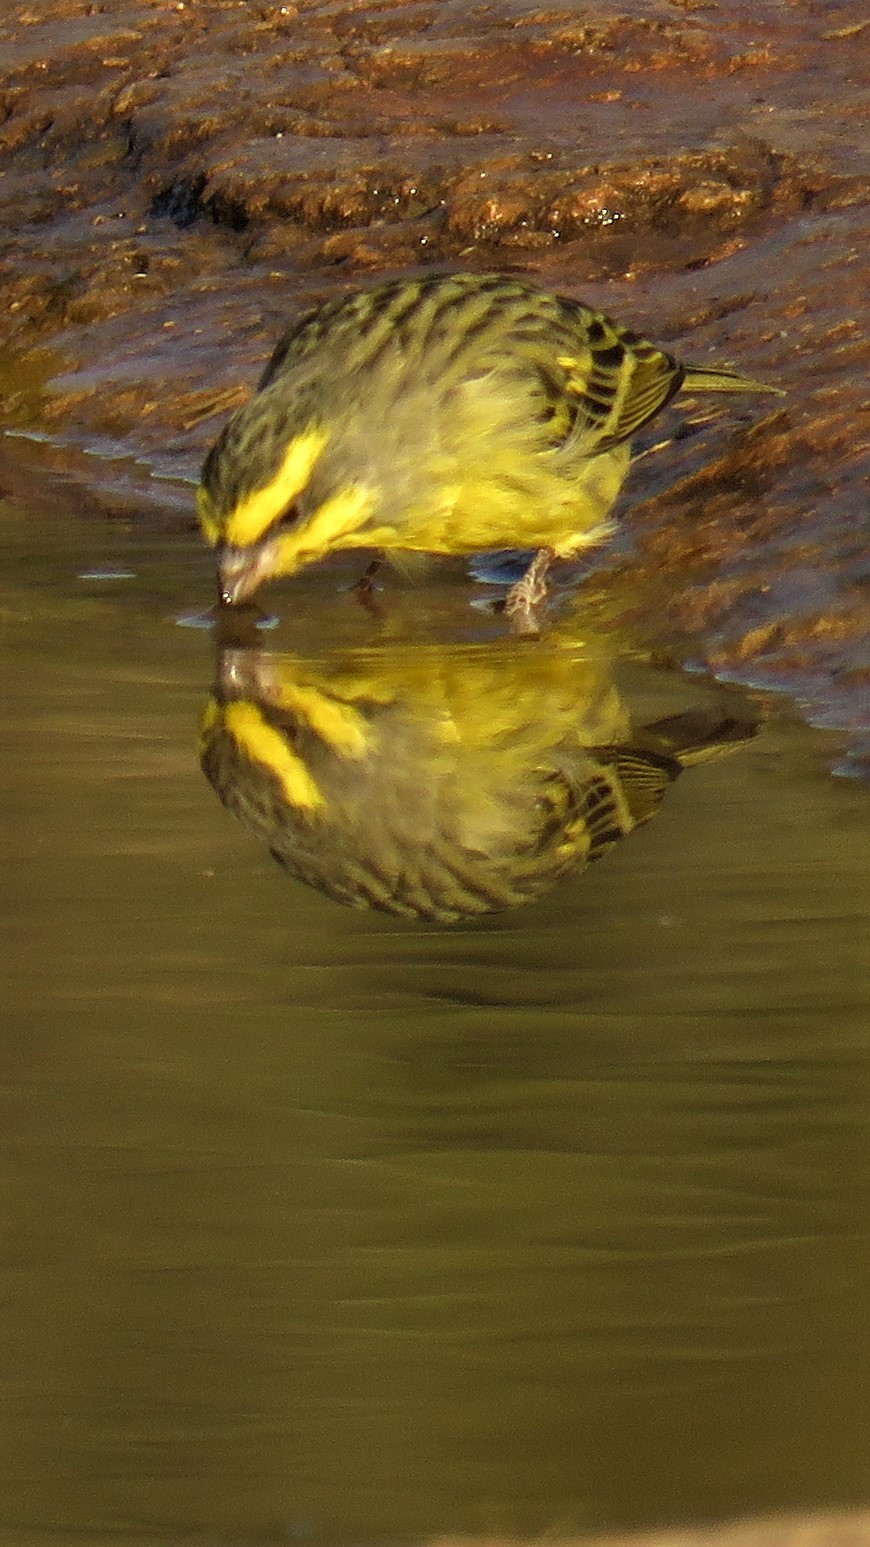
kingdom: Animalia
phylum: Chordata
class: Aves
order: Passeriformes
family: Fringillidae
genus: Crithagra
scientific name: Crithagra mozambica
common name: Yellow-fronted canary
